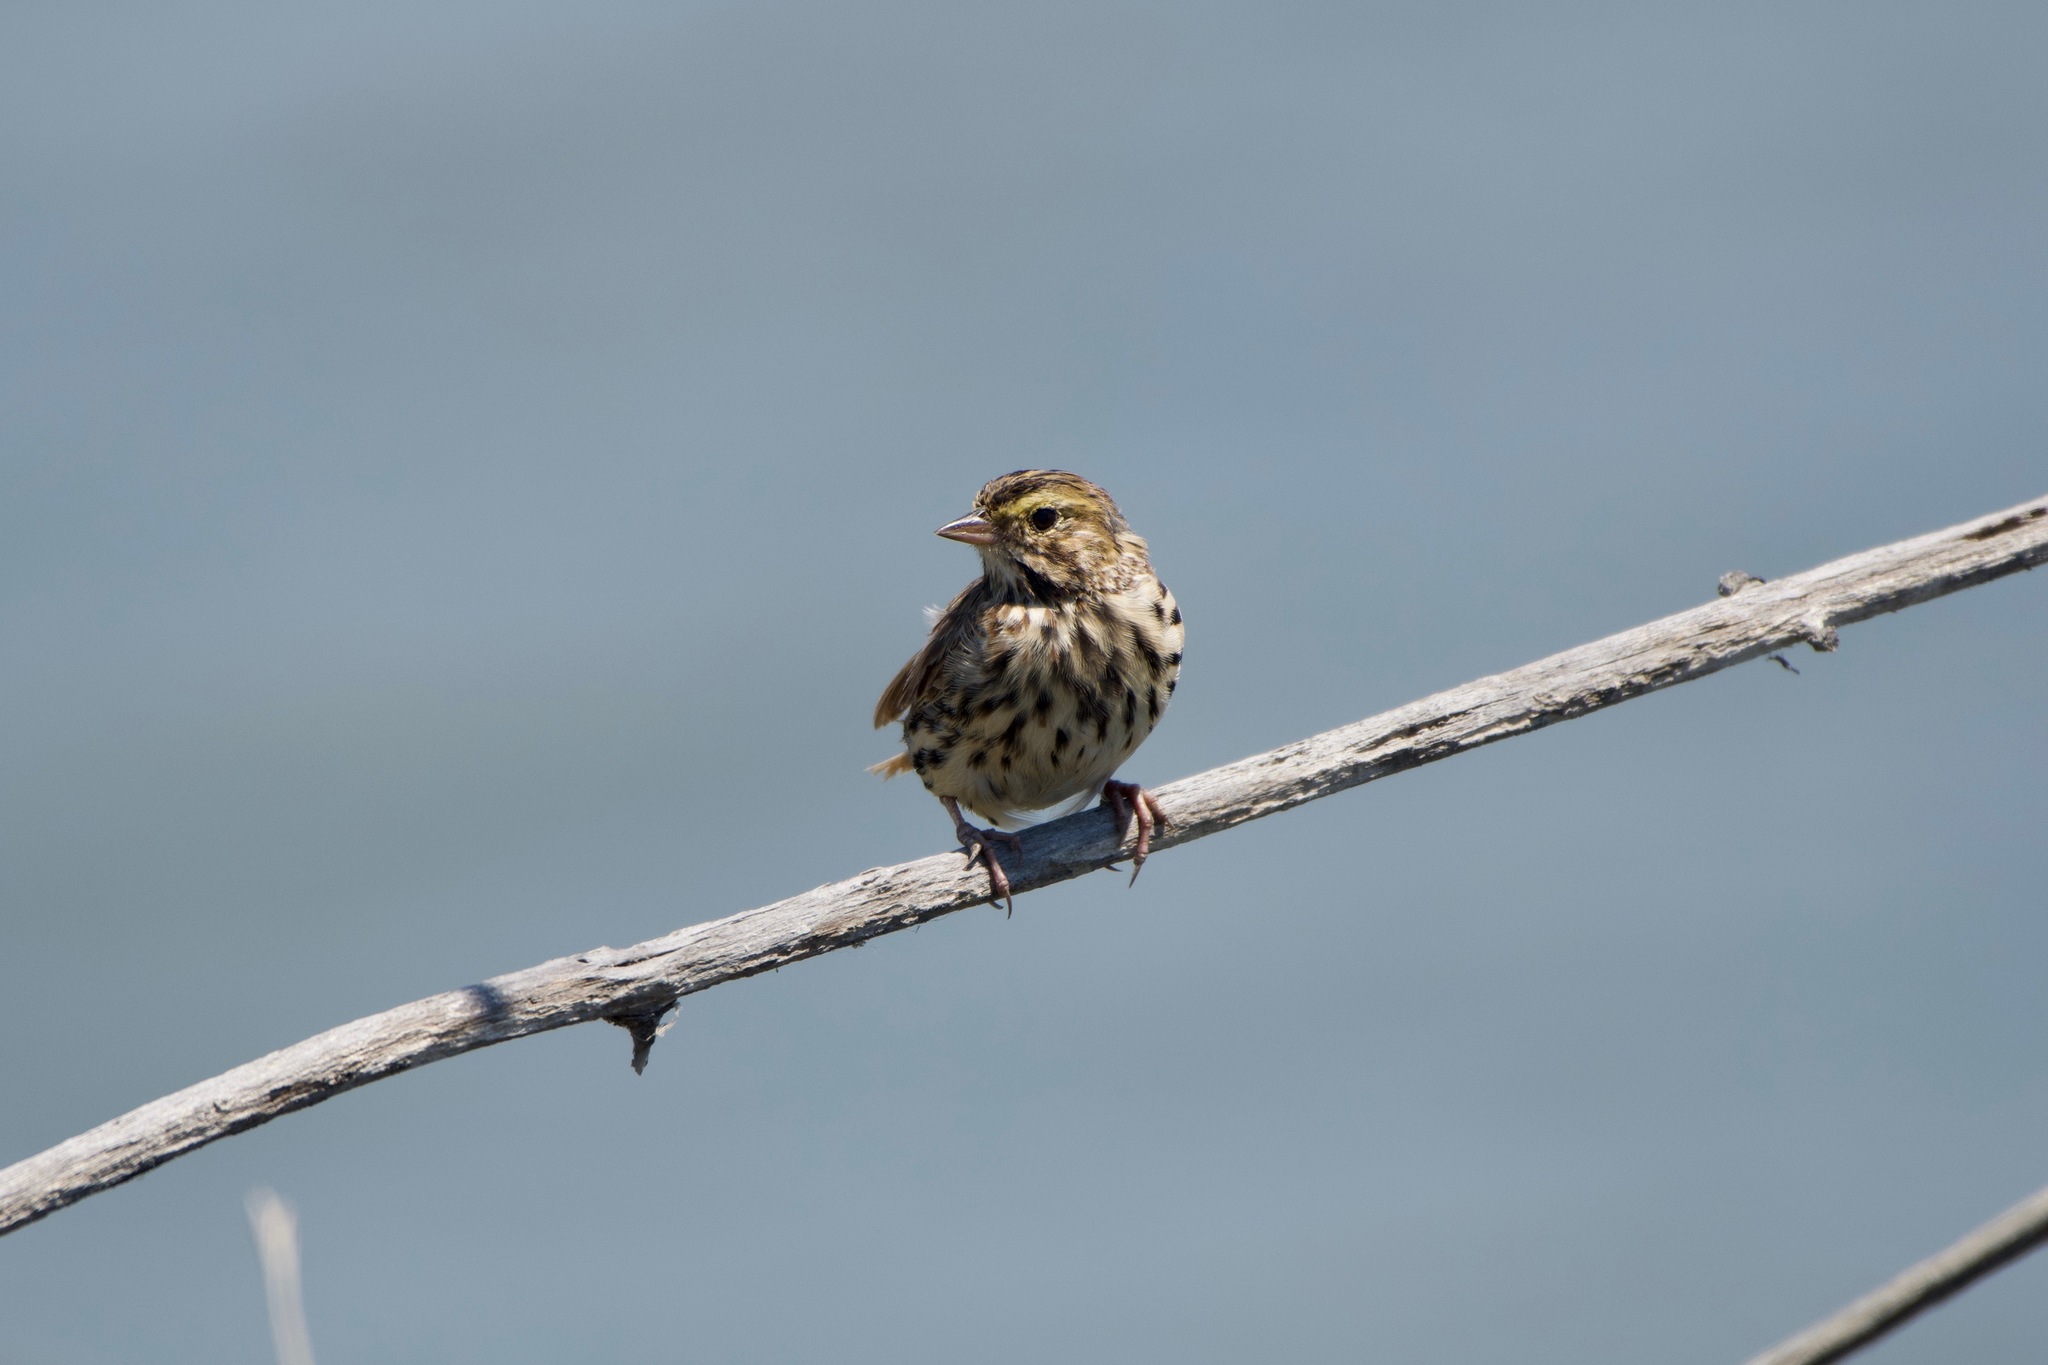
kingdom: Animalia
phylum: Chordata
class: Aves
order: Passeriformes
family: Passerellidae
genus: Passerculus
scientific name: Passerculus sandwichensis
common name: Savannah sparrow
